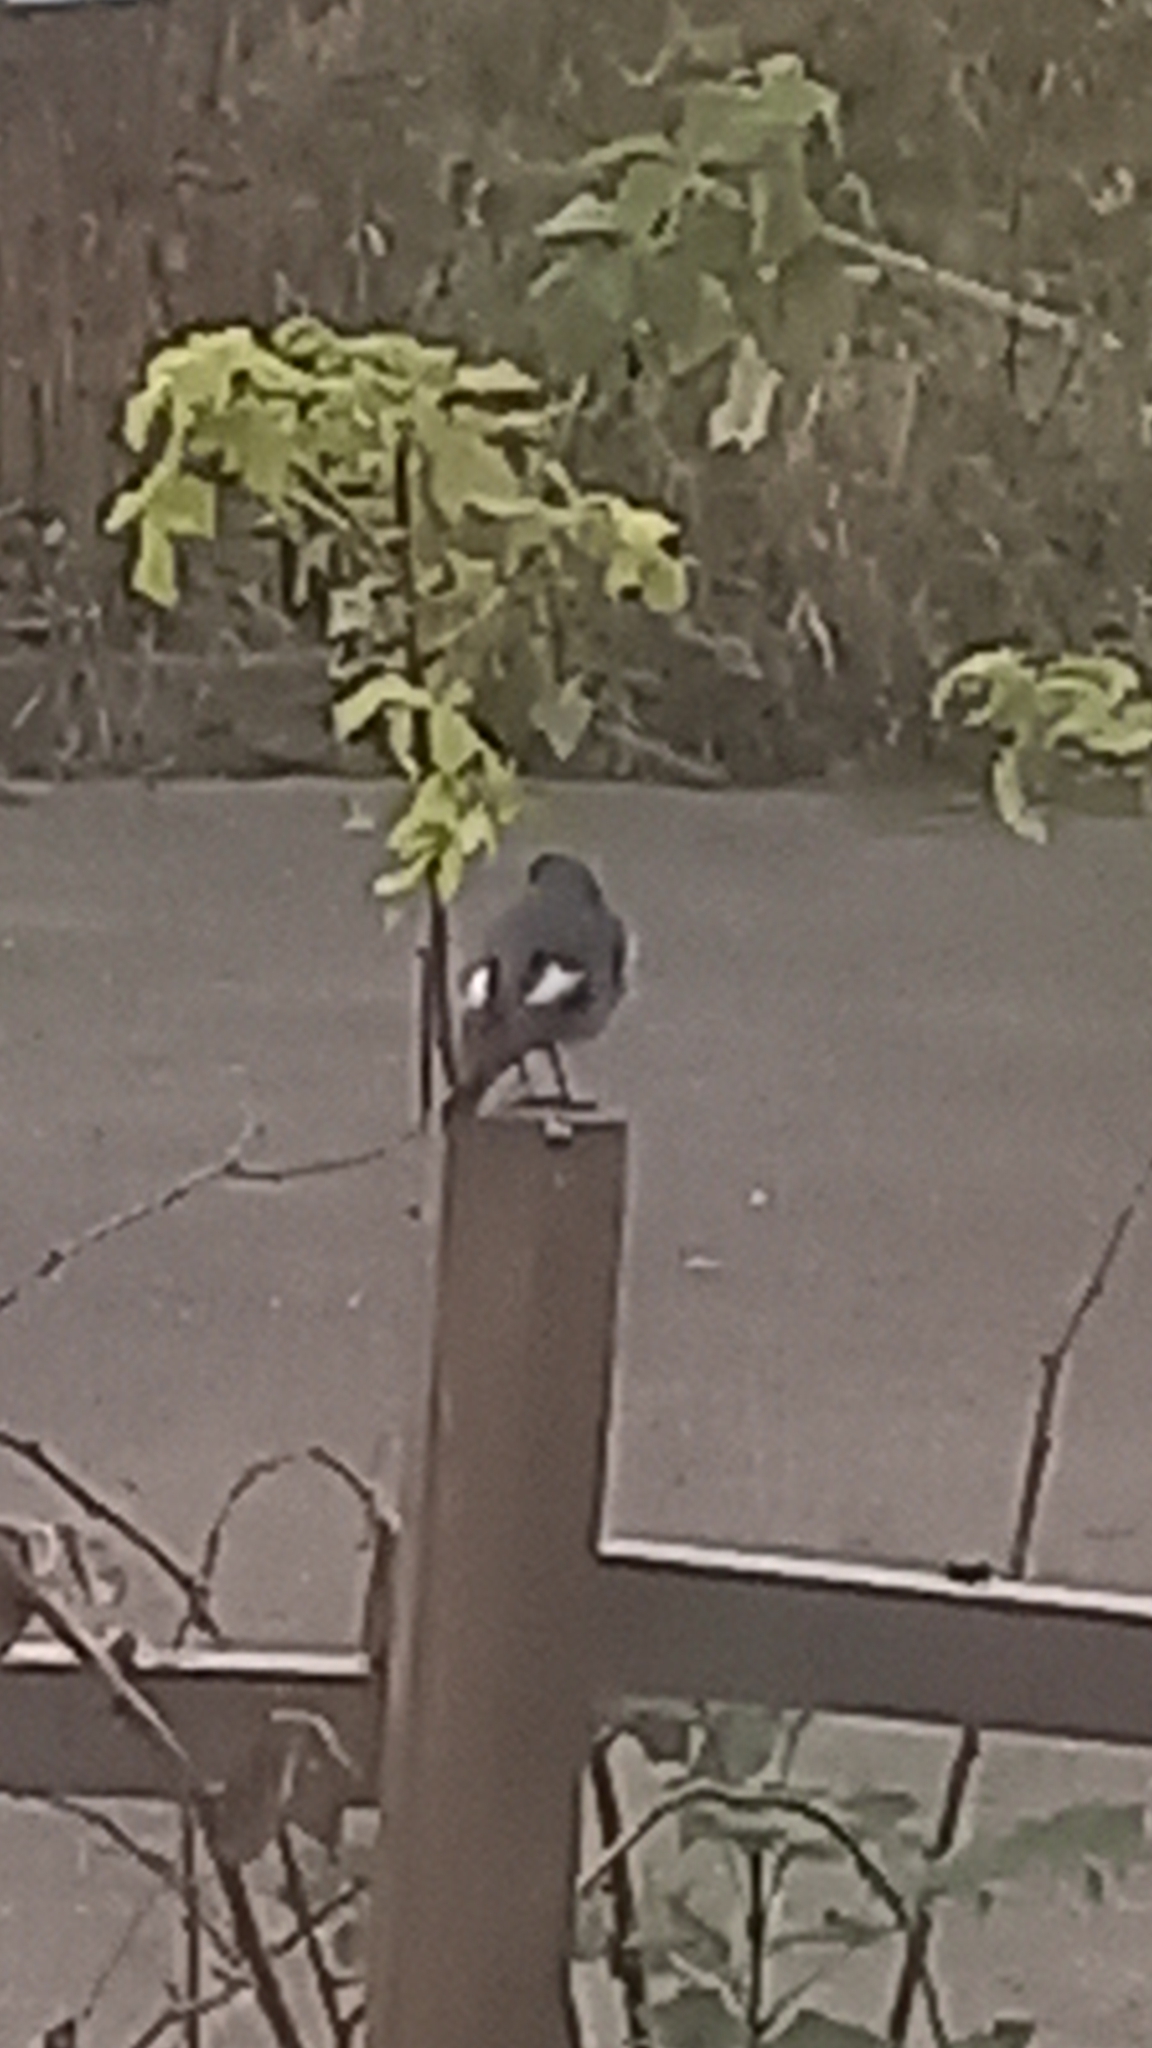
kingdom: Animalia
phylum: Chordata
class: Aves
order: Passeriformes
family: Muscicapidae
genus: Phoenicurus
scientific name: Phoenicurus ochruros
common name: Black redstart
